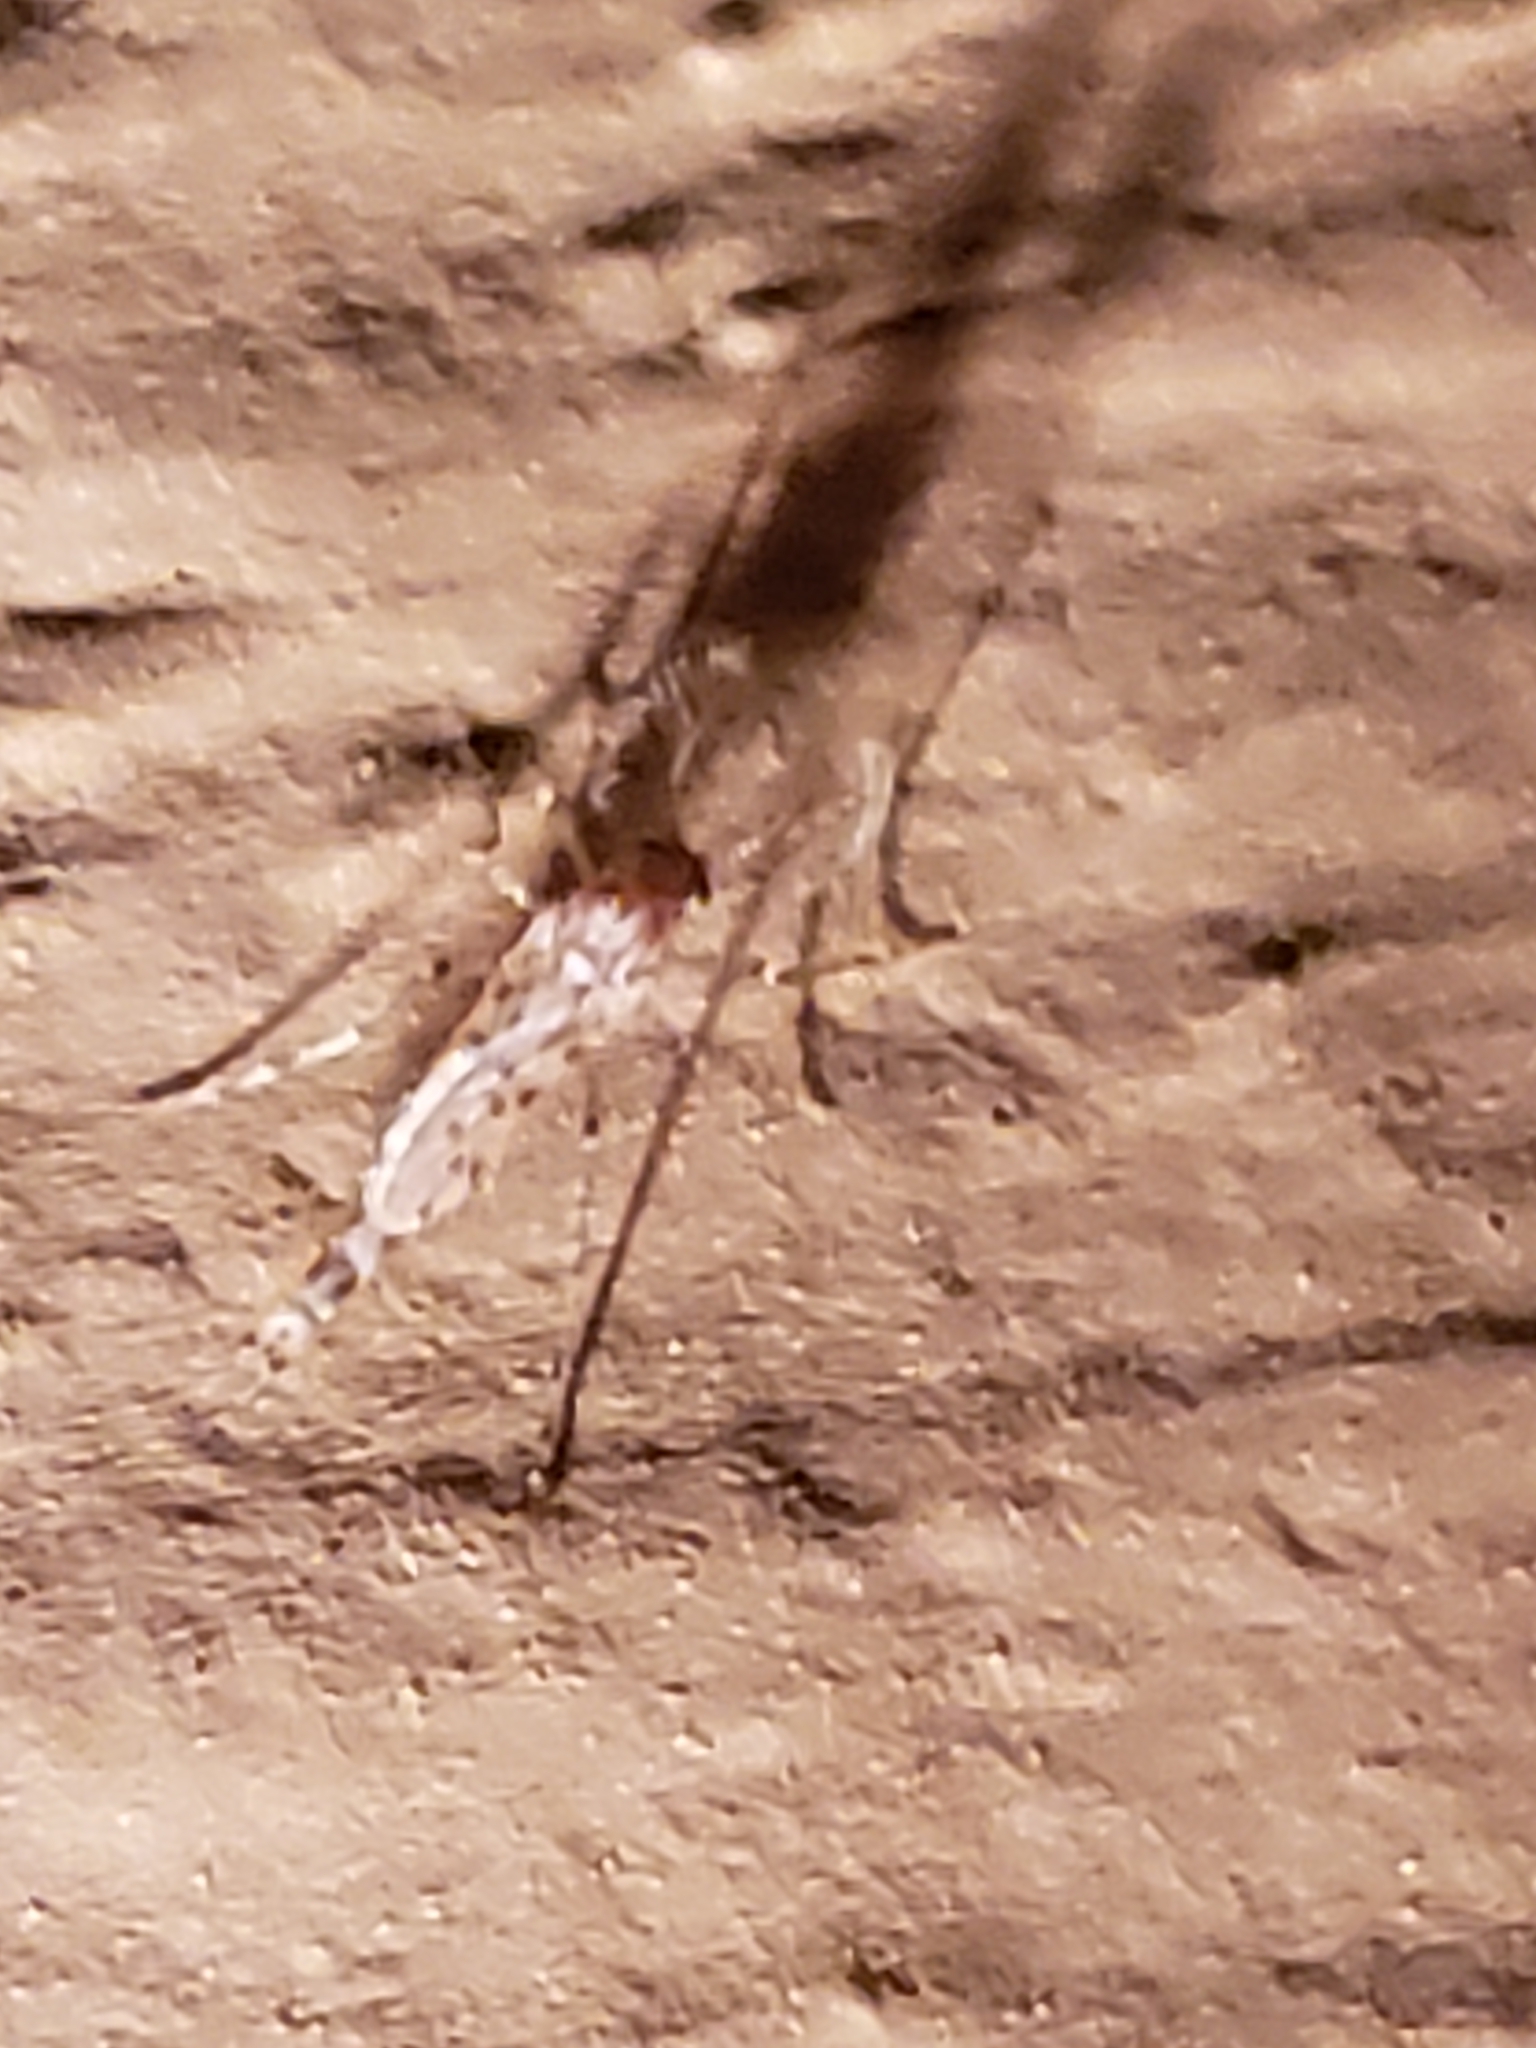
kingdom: Animalia
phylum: Arthropoda
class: Insecta
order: Diptera
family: Chaoboridae
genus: Chaoborus
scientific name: Chaoborus punctipennis
